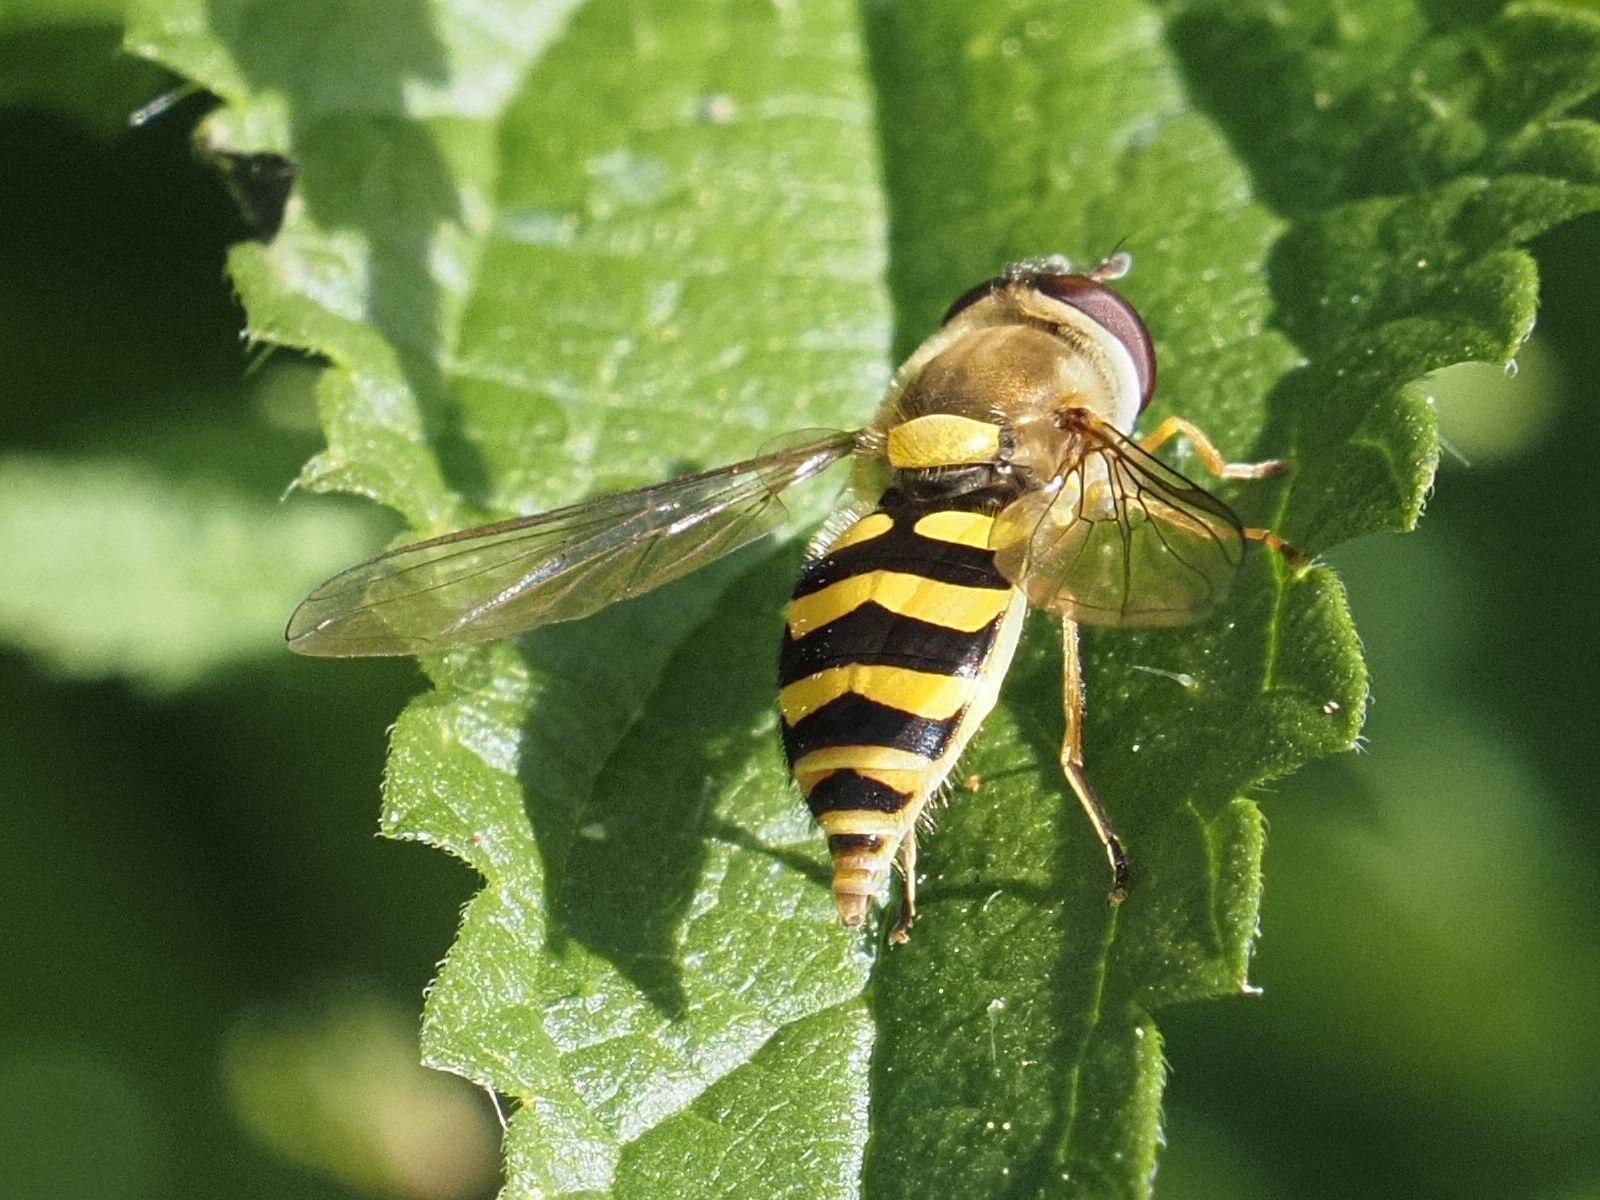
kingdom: Animalia
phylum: Arthropoda
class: Insecta
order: Diptera
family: Syrphidae
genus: Syrphus
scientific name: Syrphus ribesii
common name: Common flower fly
